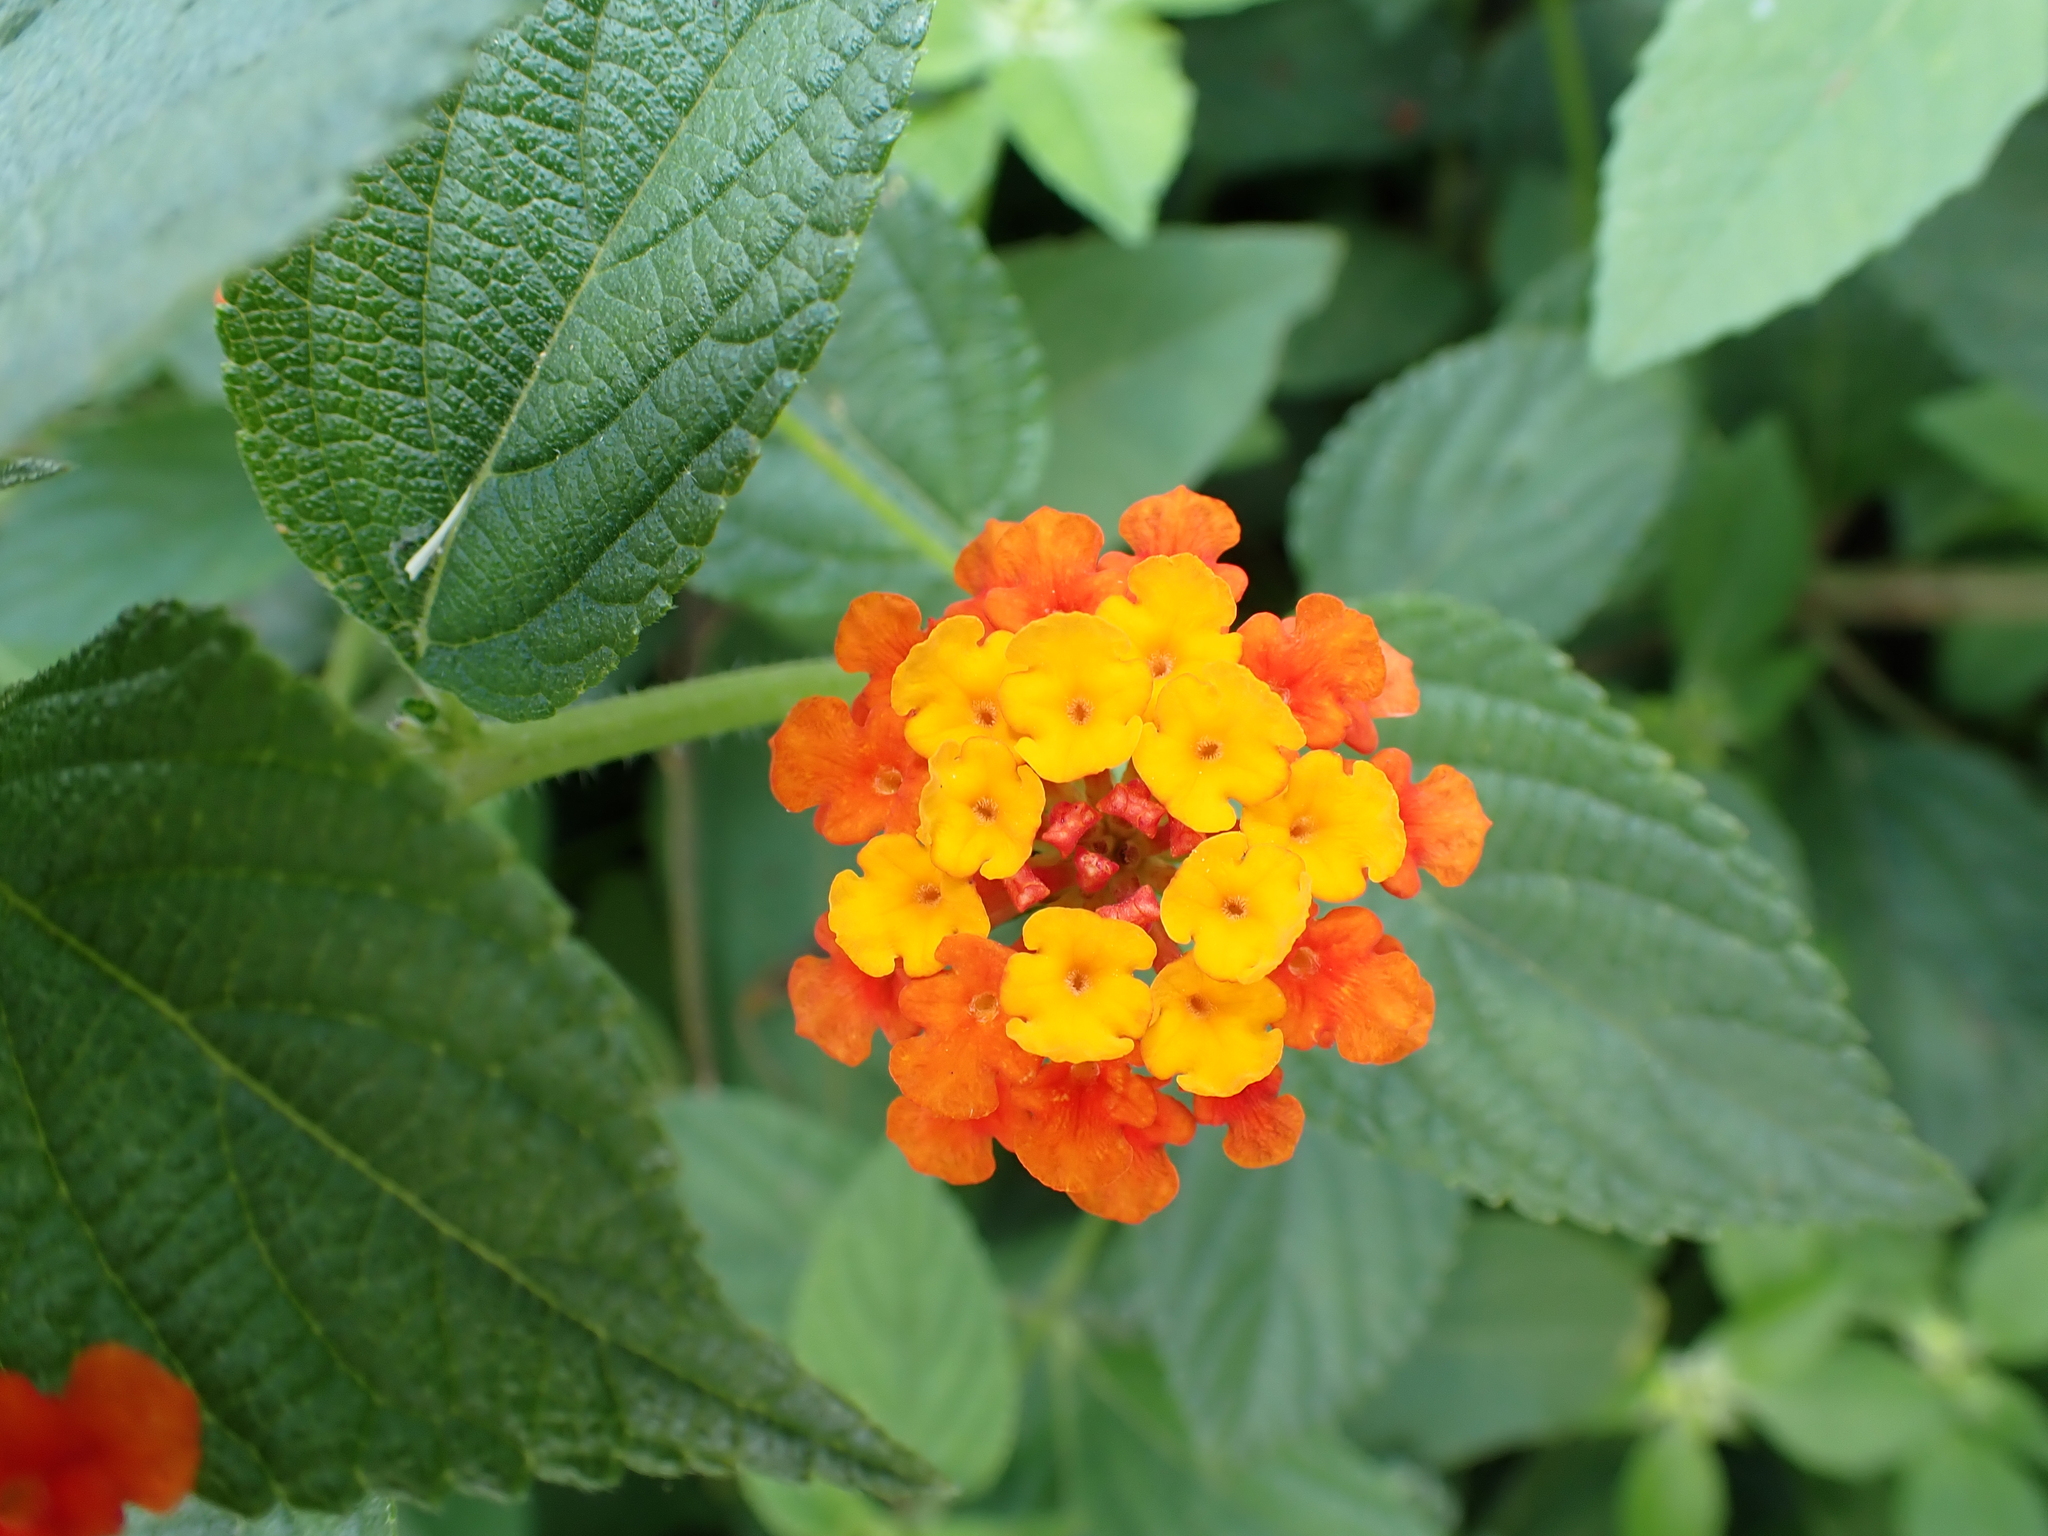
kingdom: Plantae
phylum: Tracheophyta
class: Magnoliopsida
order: Lamiales
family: Verbenaceae
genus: Lantana
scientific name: Lantana camara
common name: Lantana
